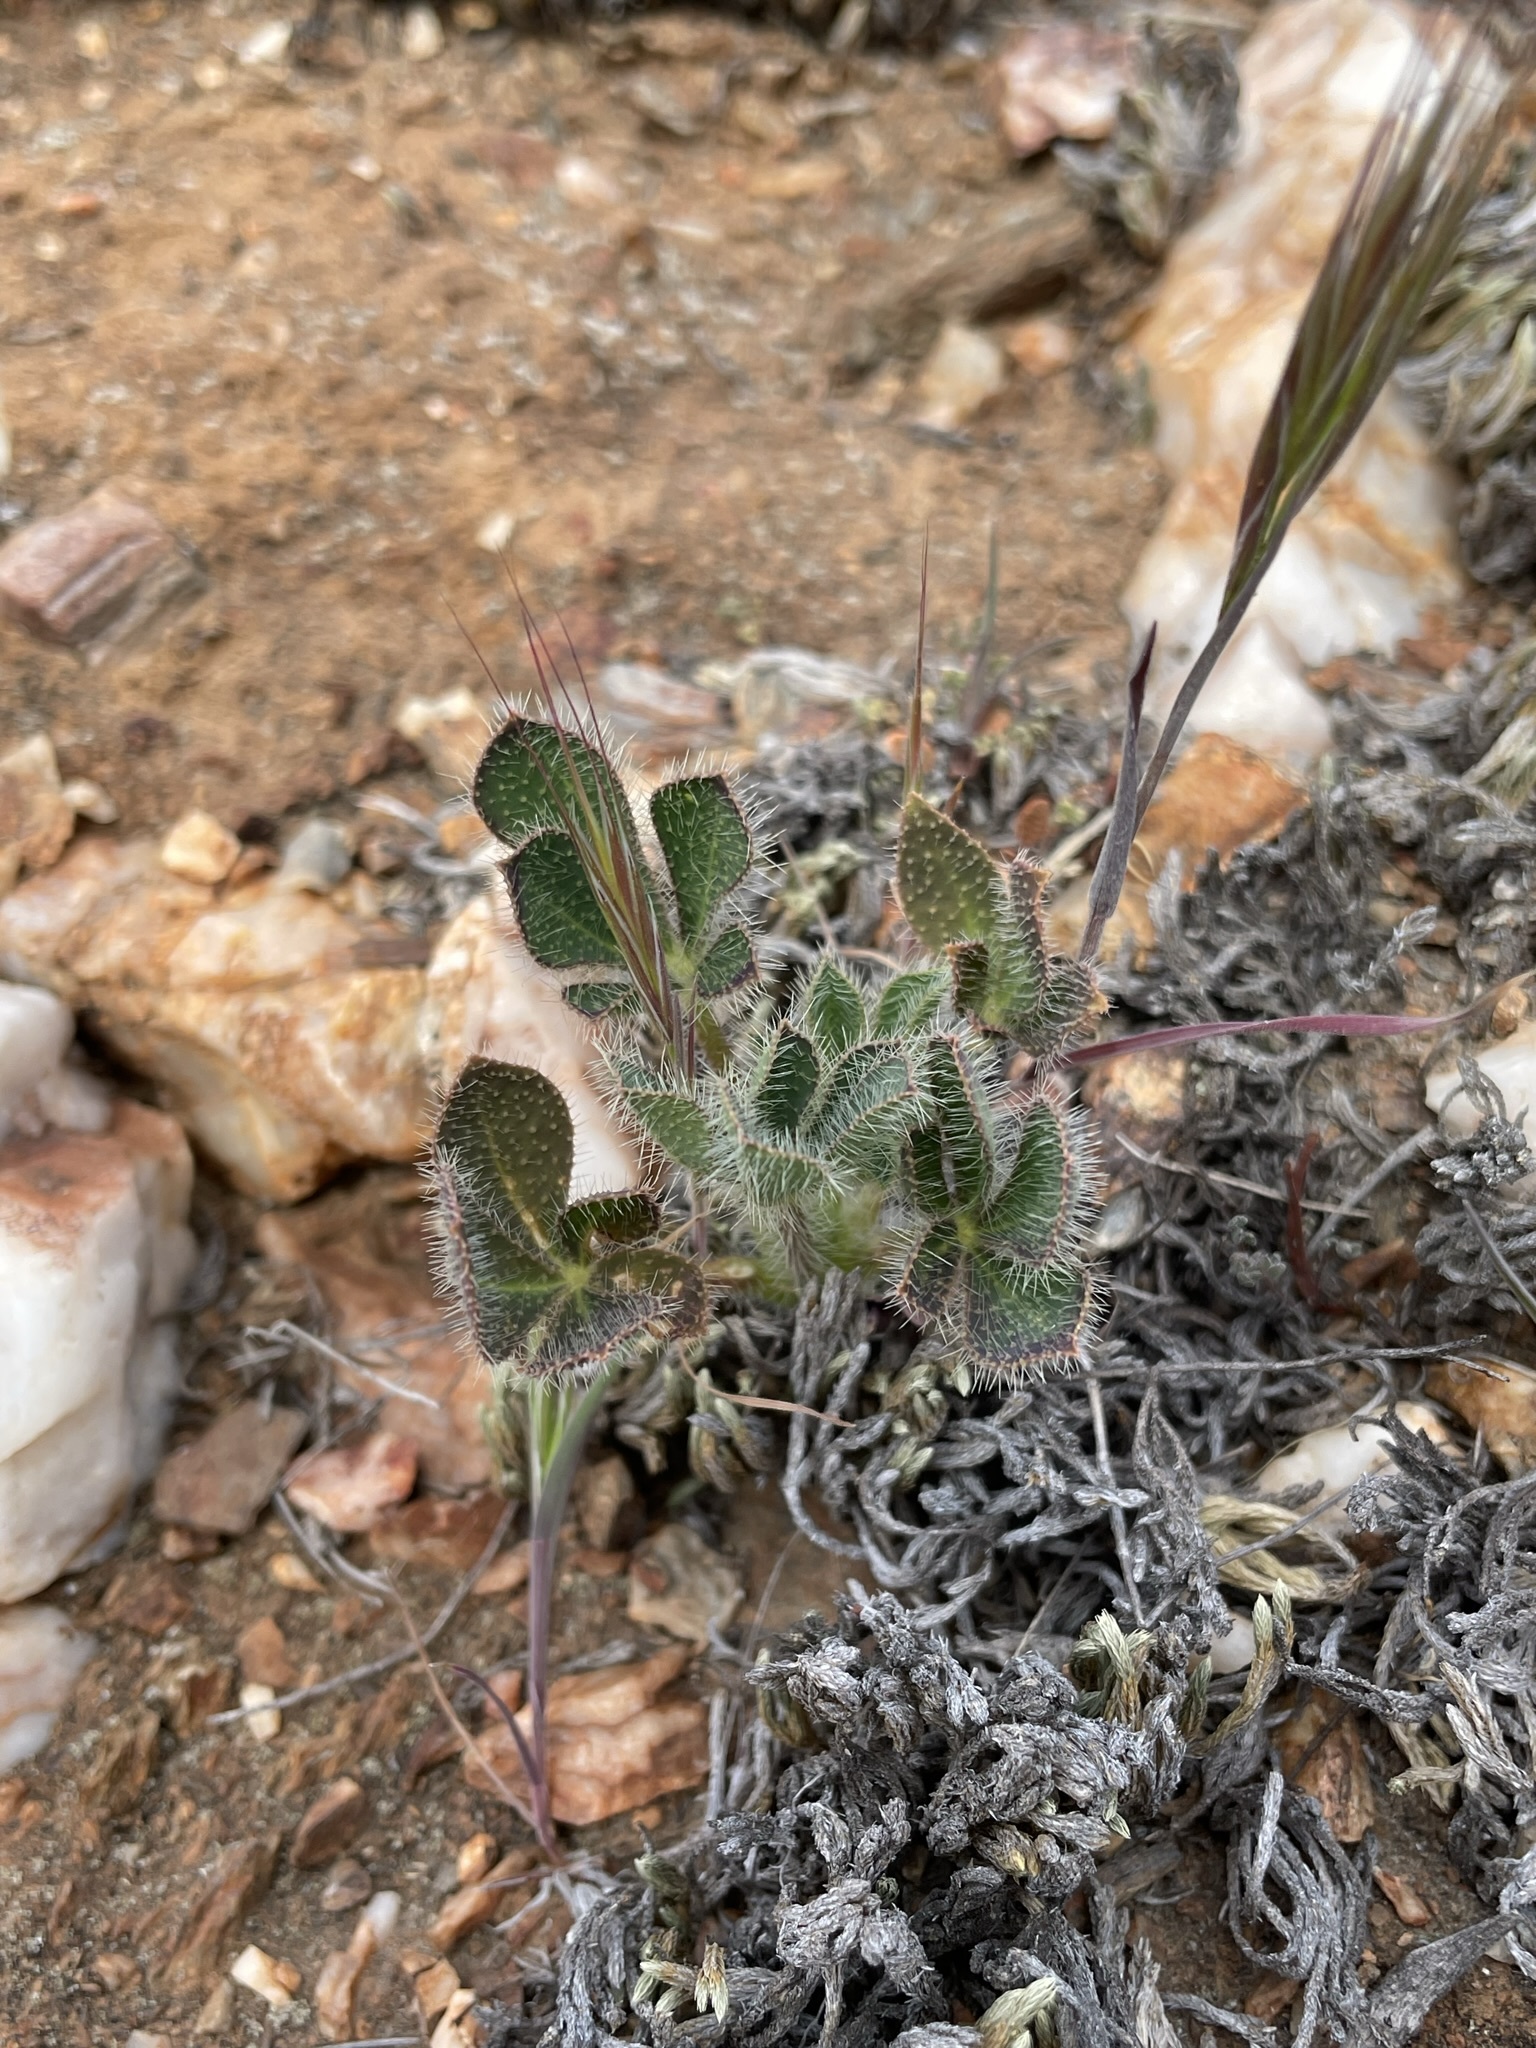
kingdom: Plantae
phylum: Tracheophyta
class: Magnoliopsida
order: Fabales
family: Fabaceae
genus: Lupinus
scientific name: Lupinus hirsutissimus
